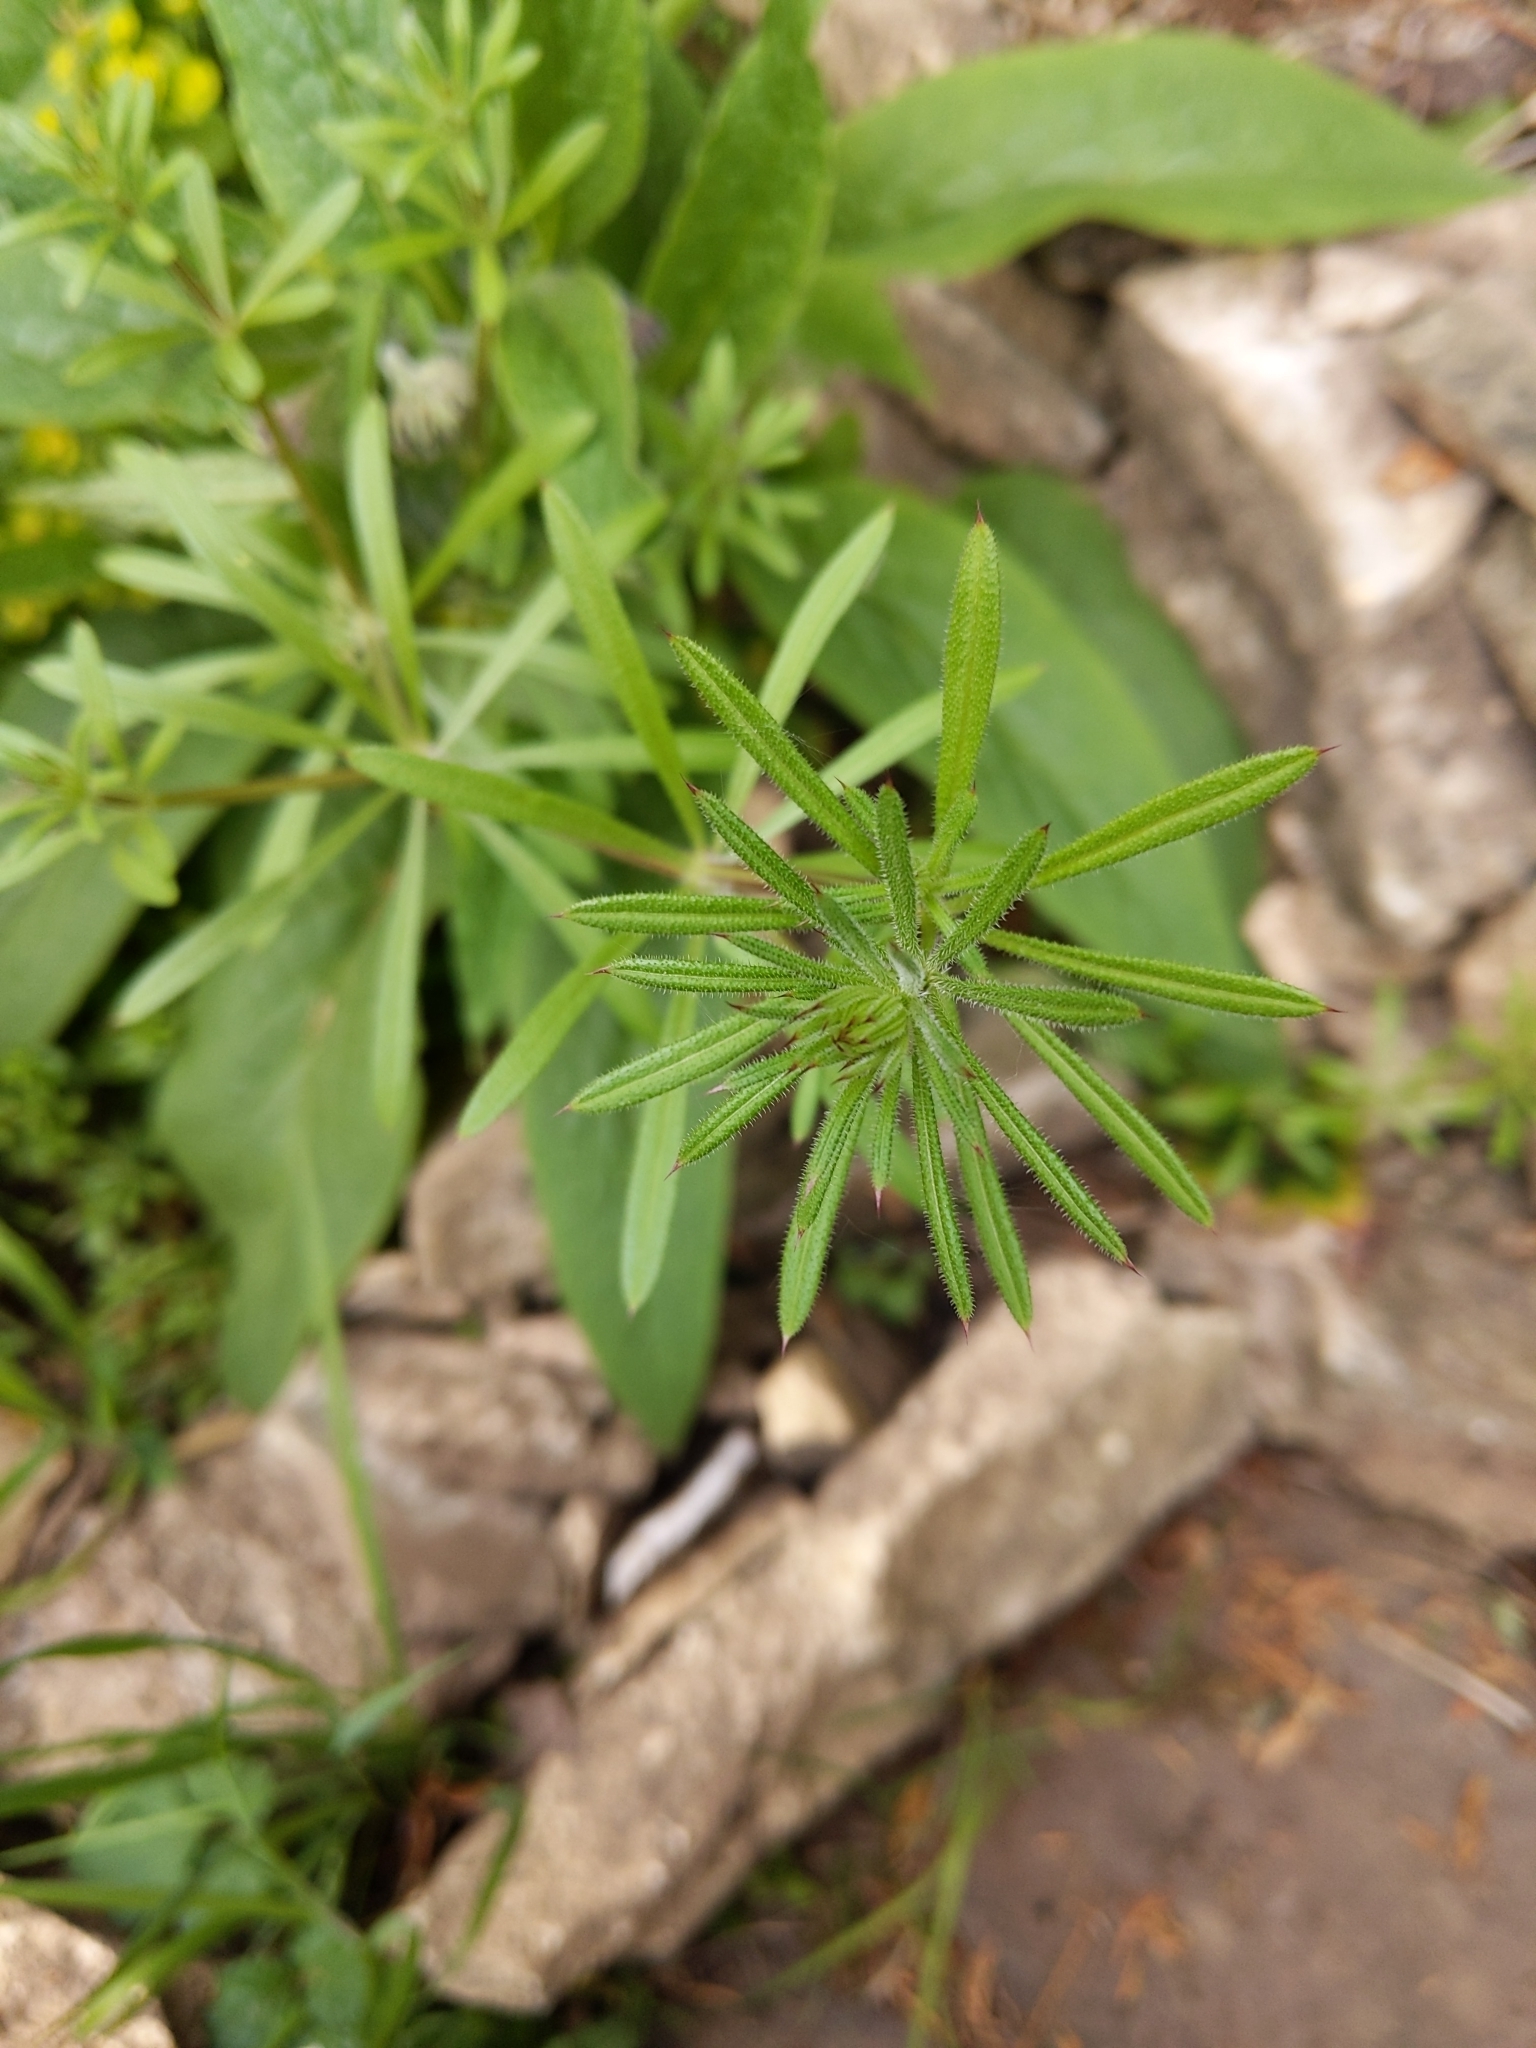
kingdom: Plantae
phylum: Tracheophyta
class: Magnoliopsida
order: Gentianales
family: Rubiaceae
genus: Galium
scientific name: Galium aparine
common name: Cleavers
